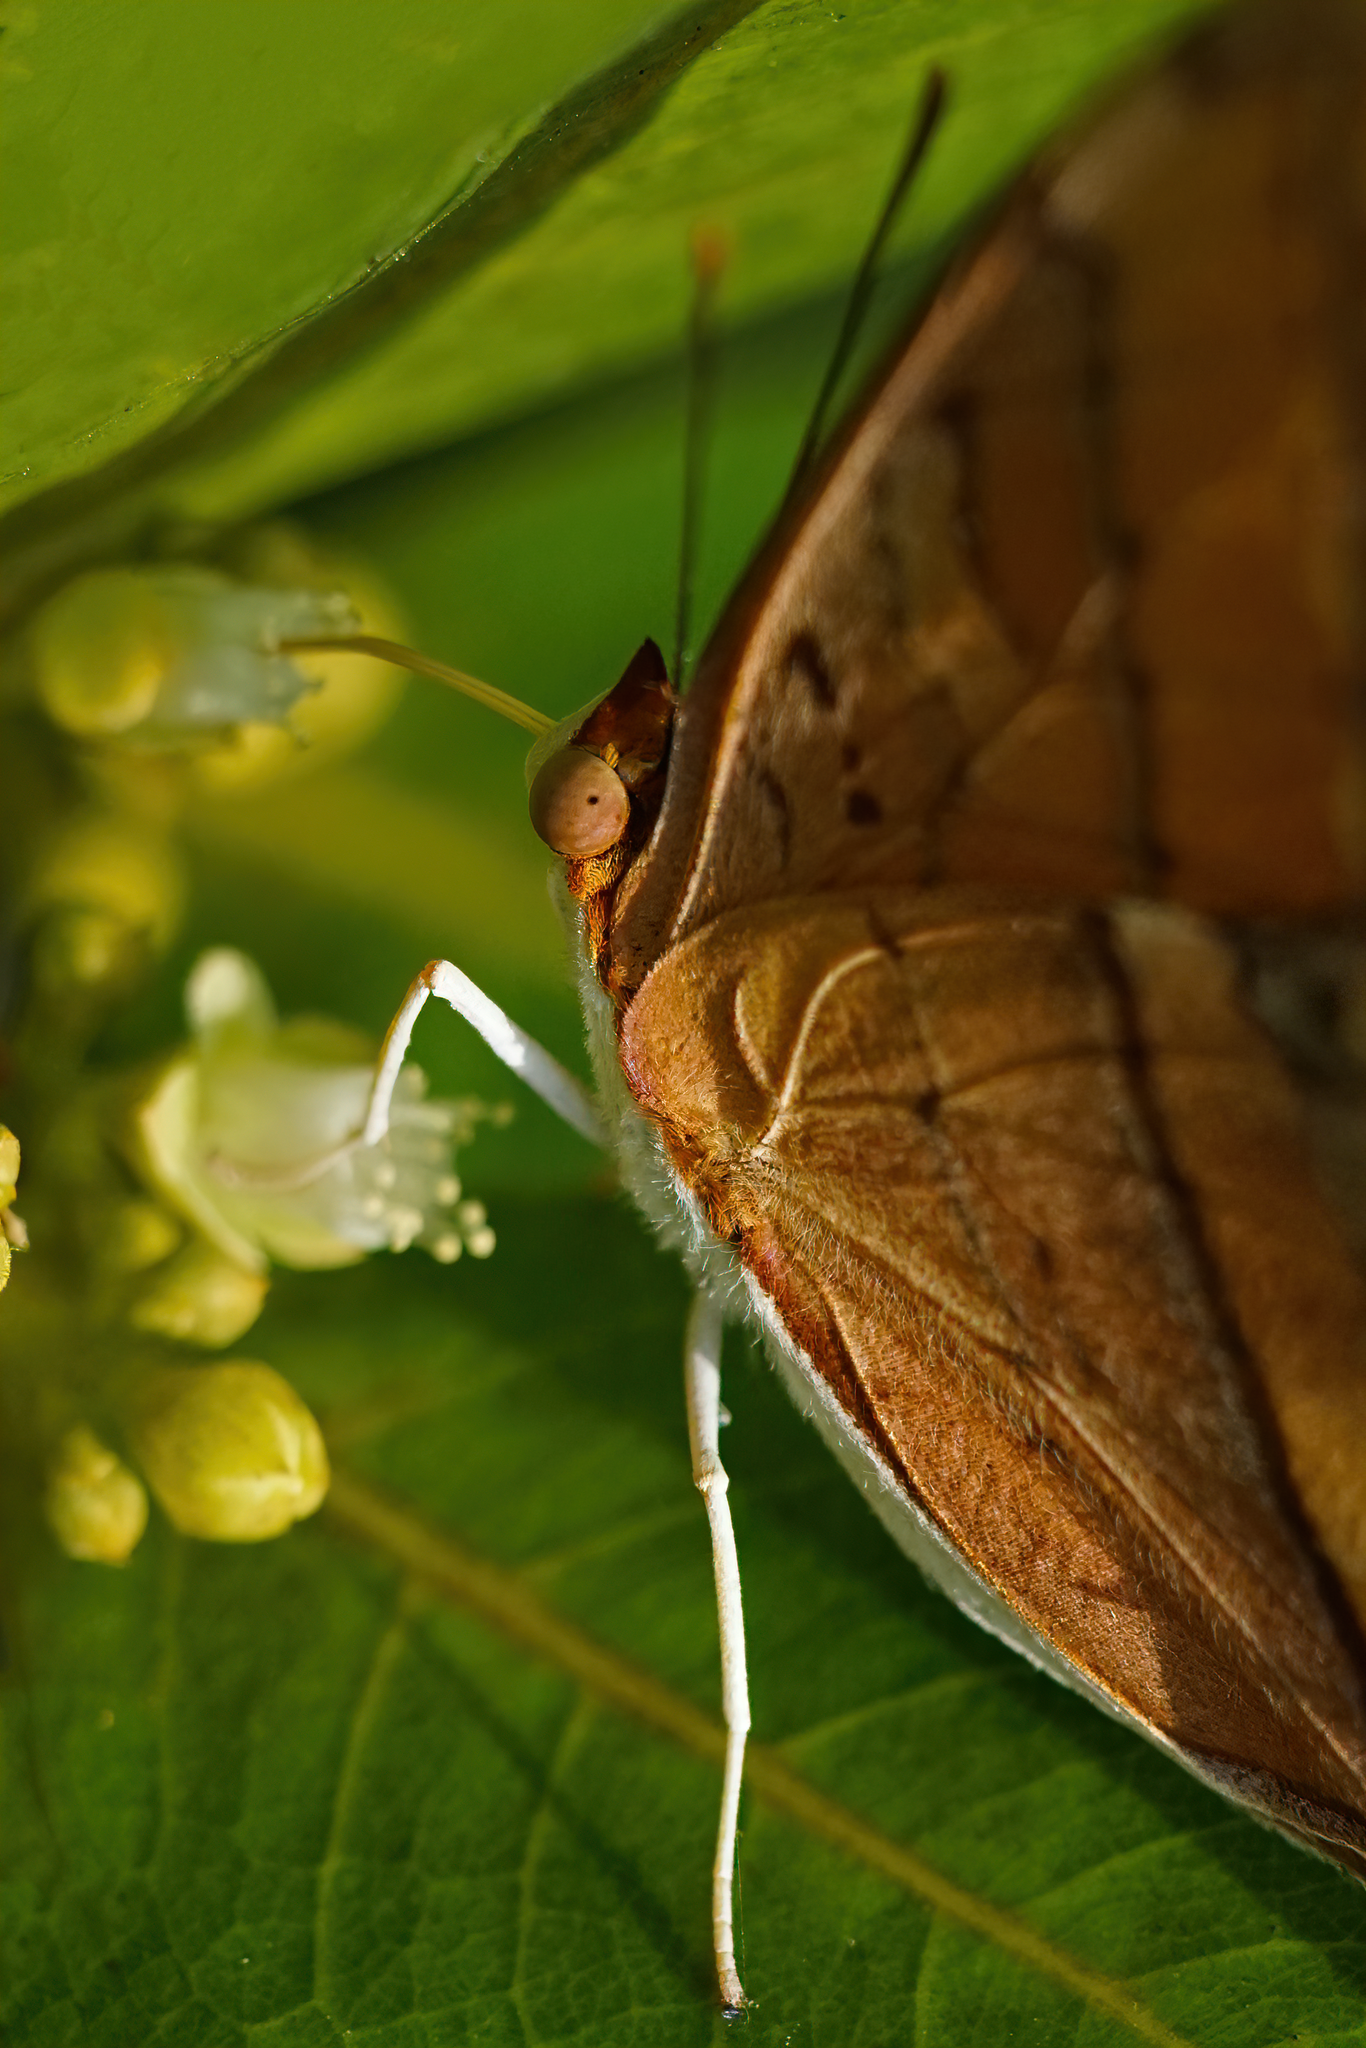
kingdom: Animalia
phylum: Arthropoda
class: Insecta
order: Lepidoptera
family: Nymphalidae
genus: Marpesia
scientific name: Marpesia petreus
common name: Red dagger wing
